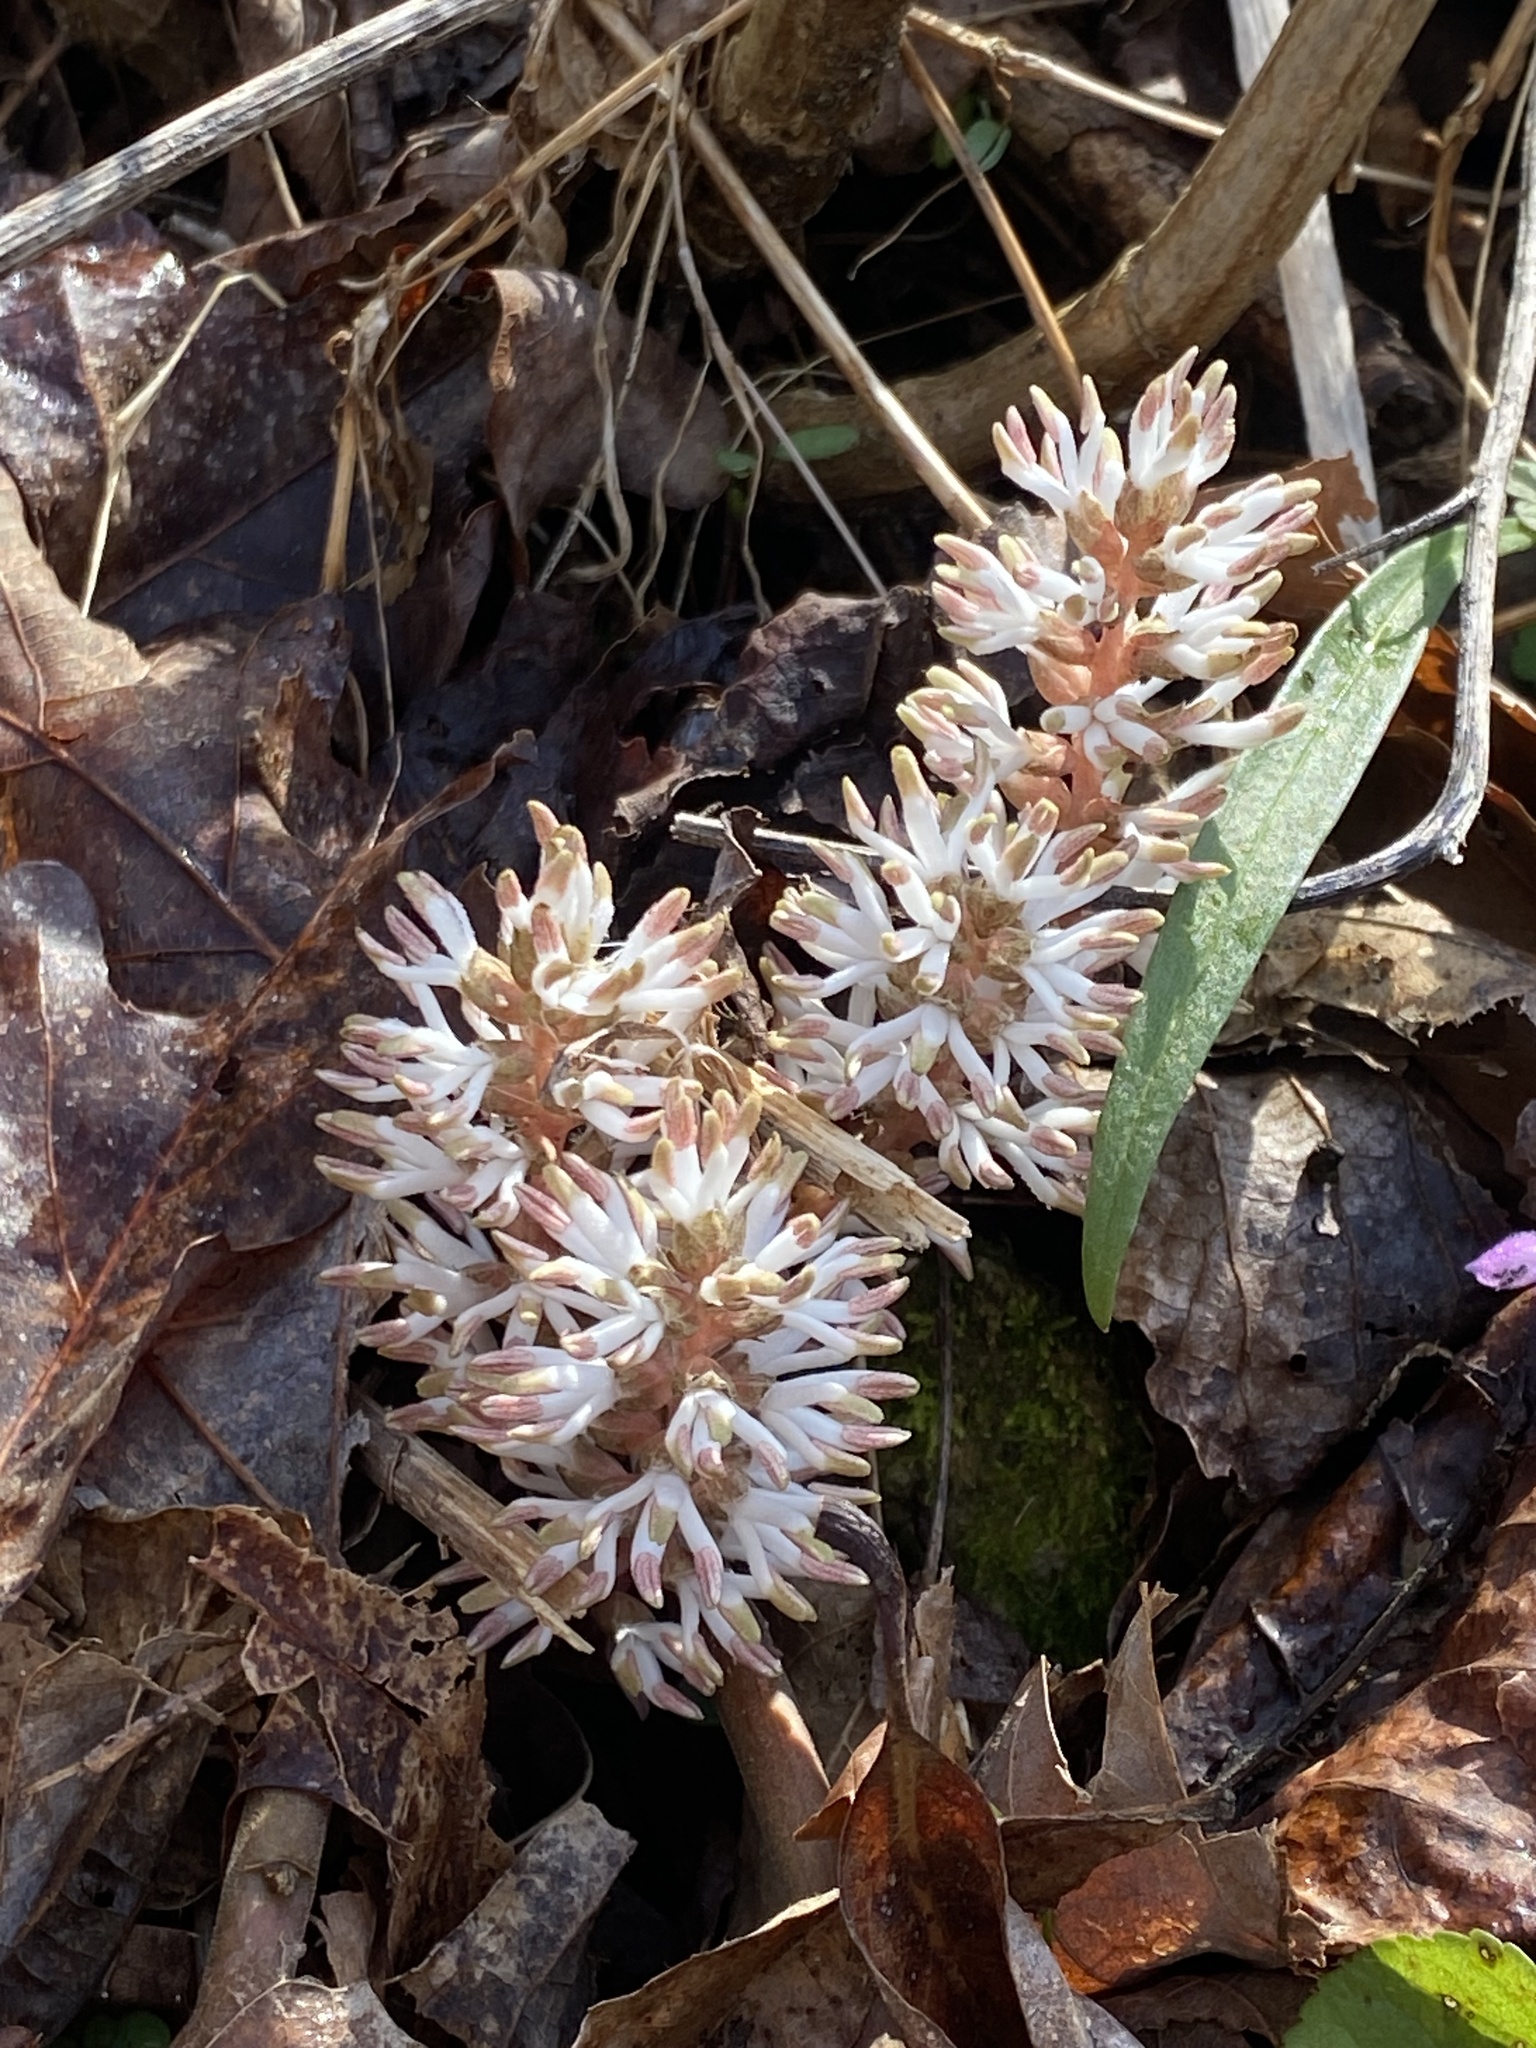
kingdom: Plantae
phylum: Tracheophyta
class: Magnoliopsida
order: Buxales
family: Buxaceae
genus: Pachysandra
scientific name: Pachysandra procumbens
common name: Mountain-spurge
